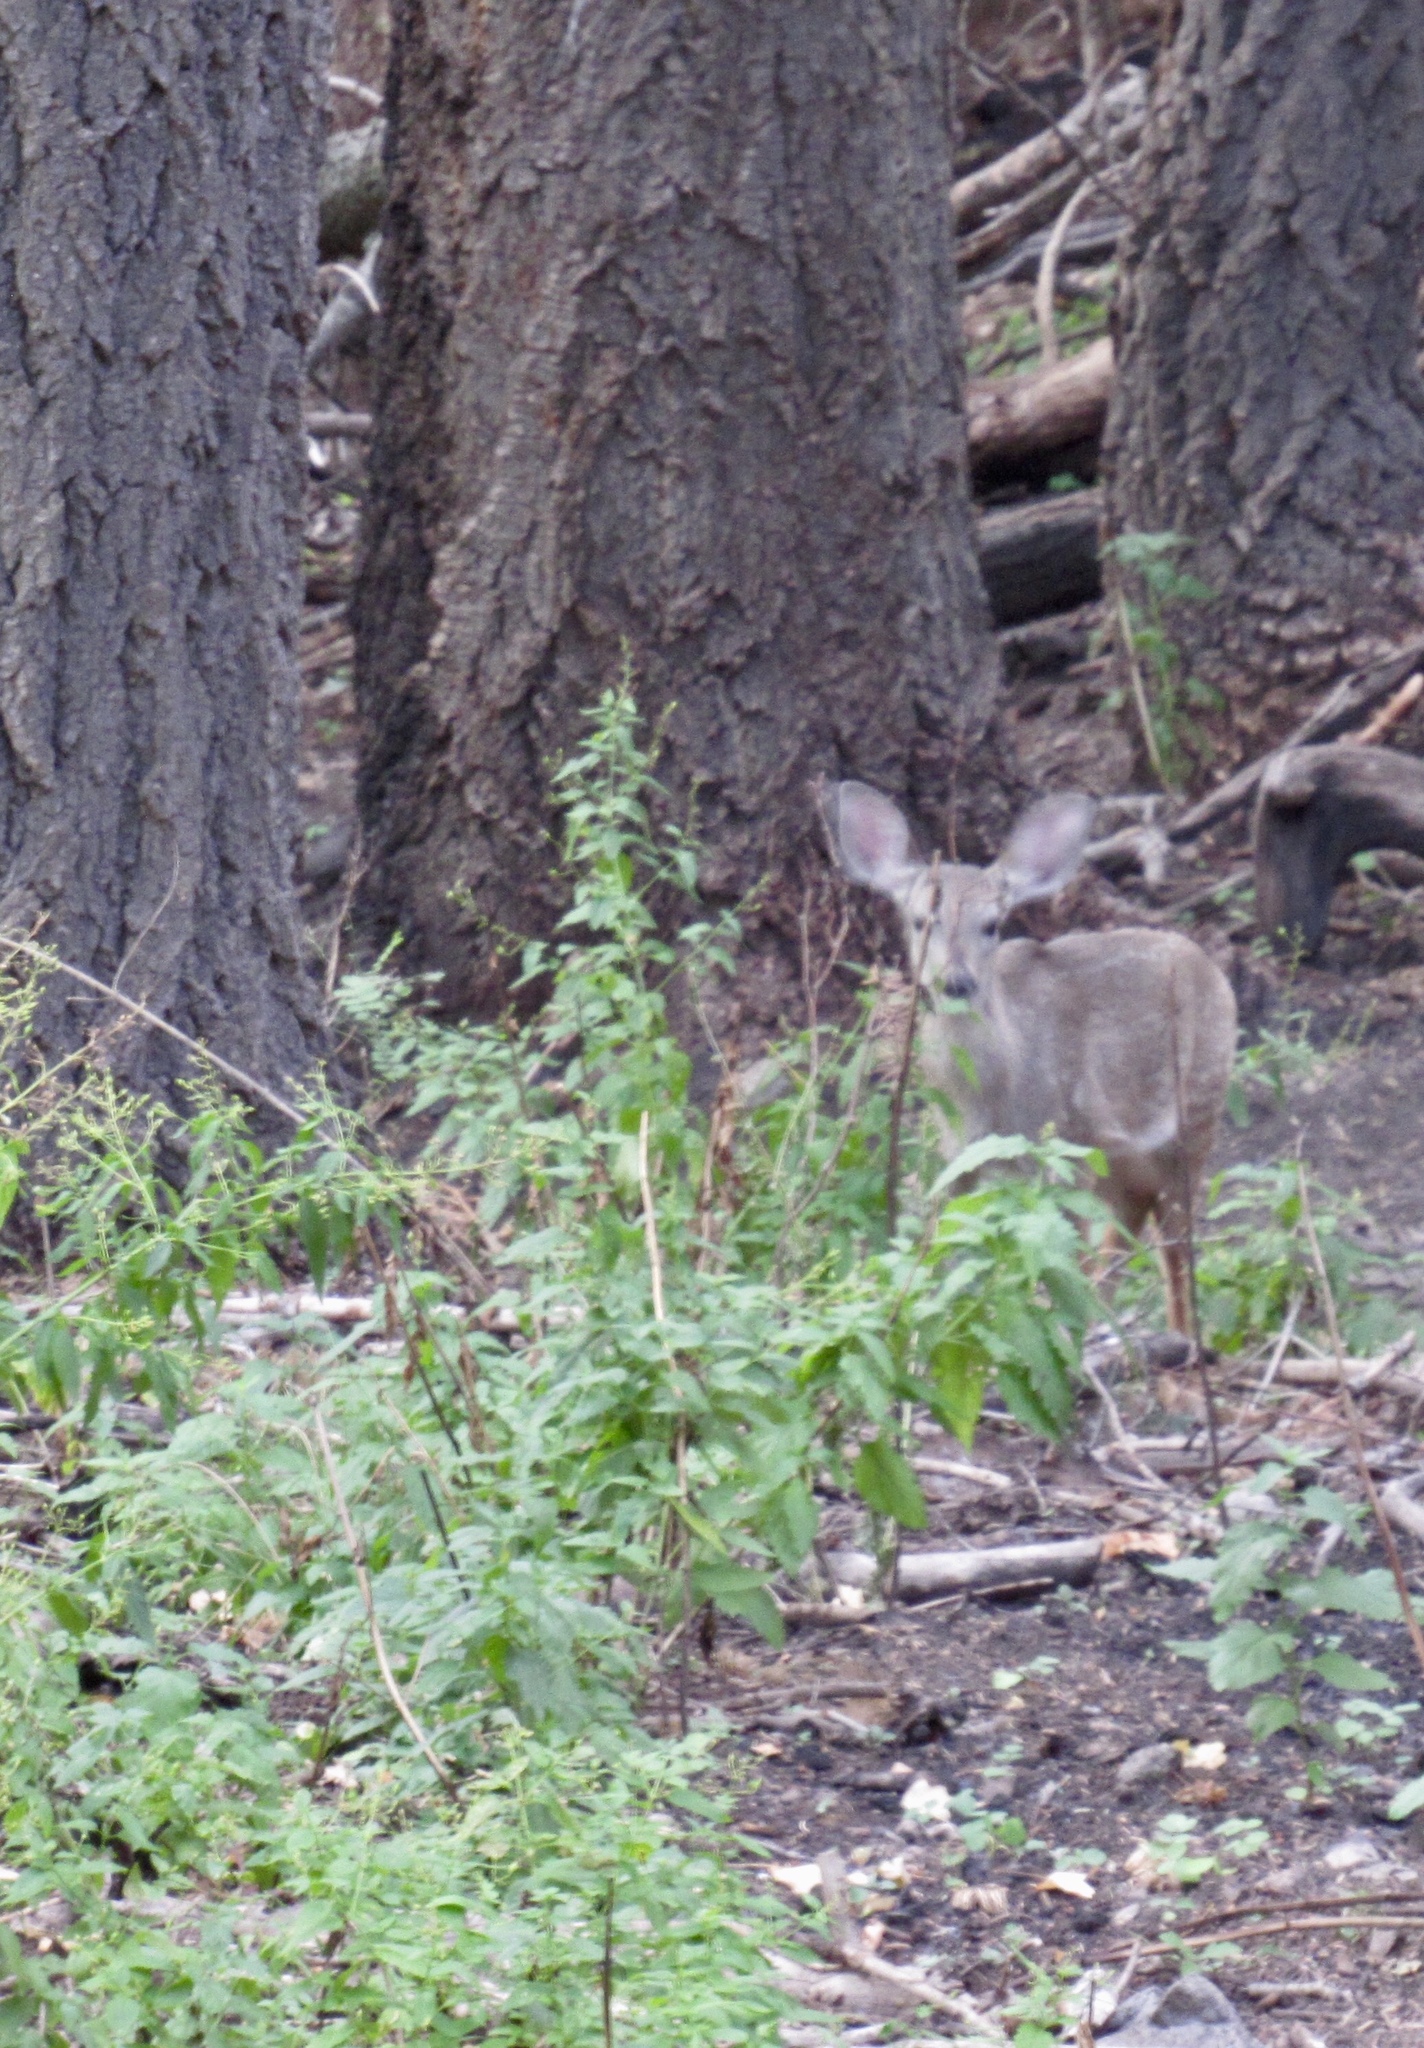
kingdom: Animalia
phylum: Chordata
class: Mammalia
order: Artiodactyla
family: Cervidae
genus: Odocoileus
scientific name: Odocoileus virginianus
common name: White-tailed deer
